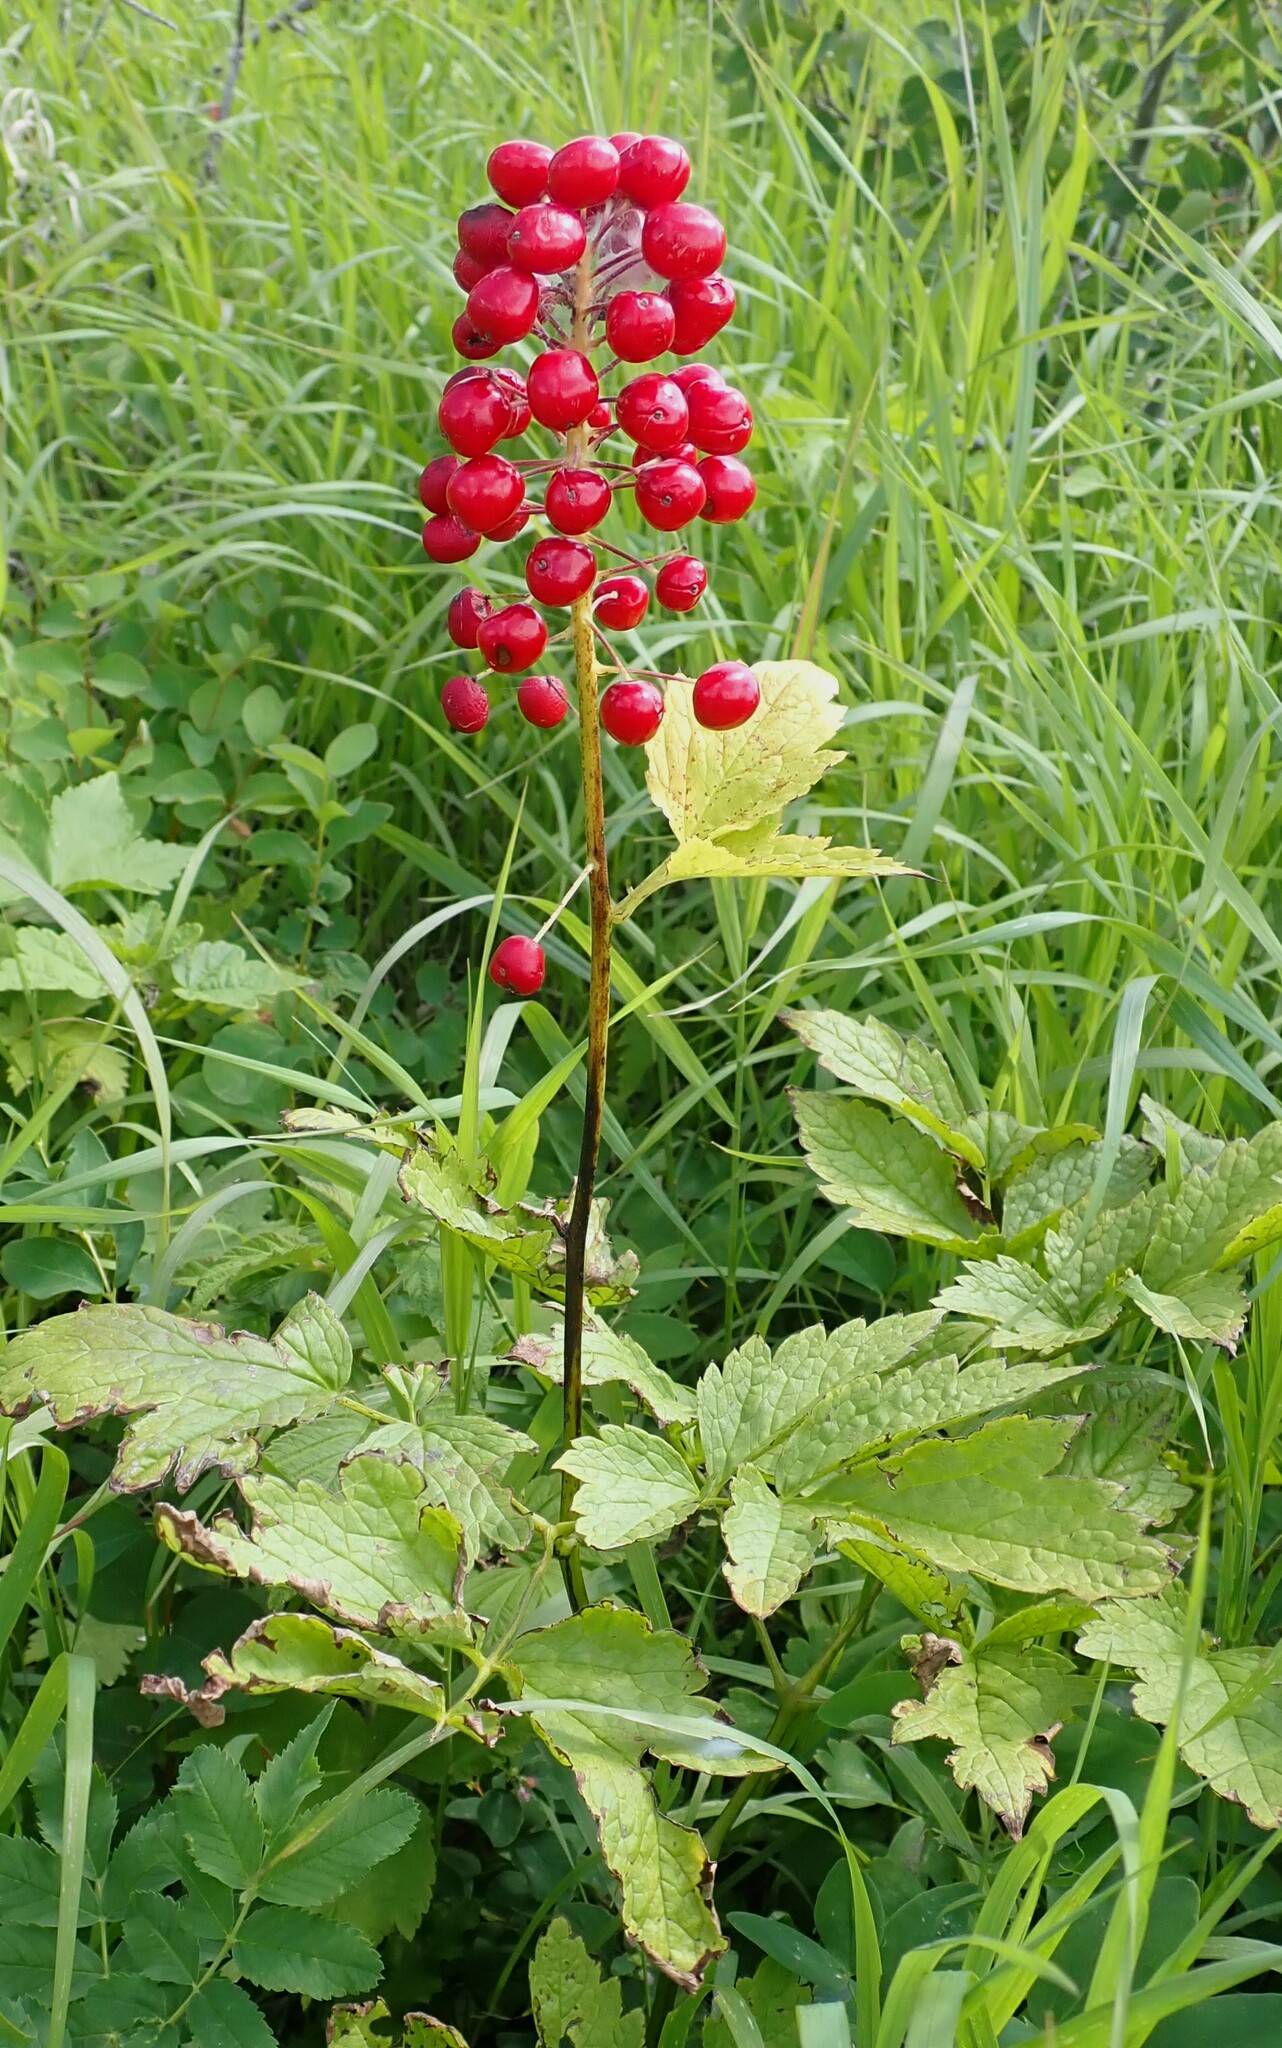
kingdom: Plantae
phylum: Tracheophyta
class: Magnoliopsida
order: Ranunculales
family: Ranunculaceae
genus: Actaea
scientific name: Actaea rubra
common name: Red baneberry
